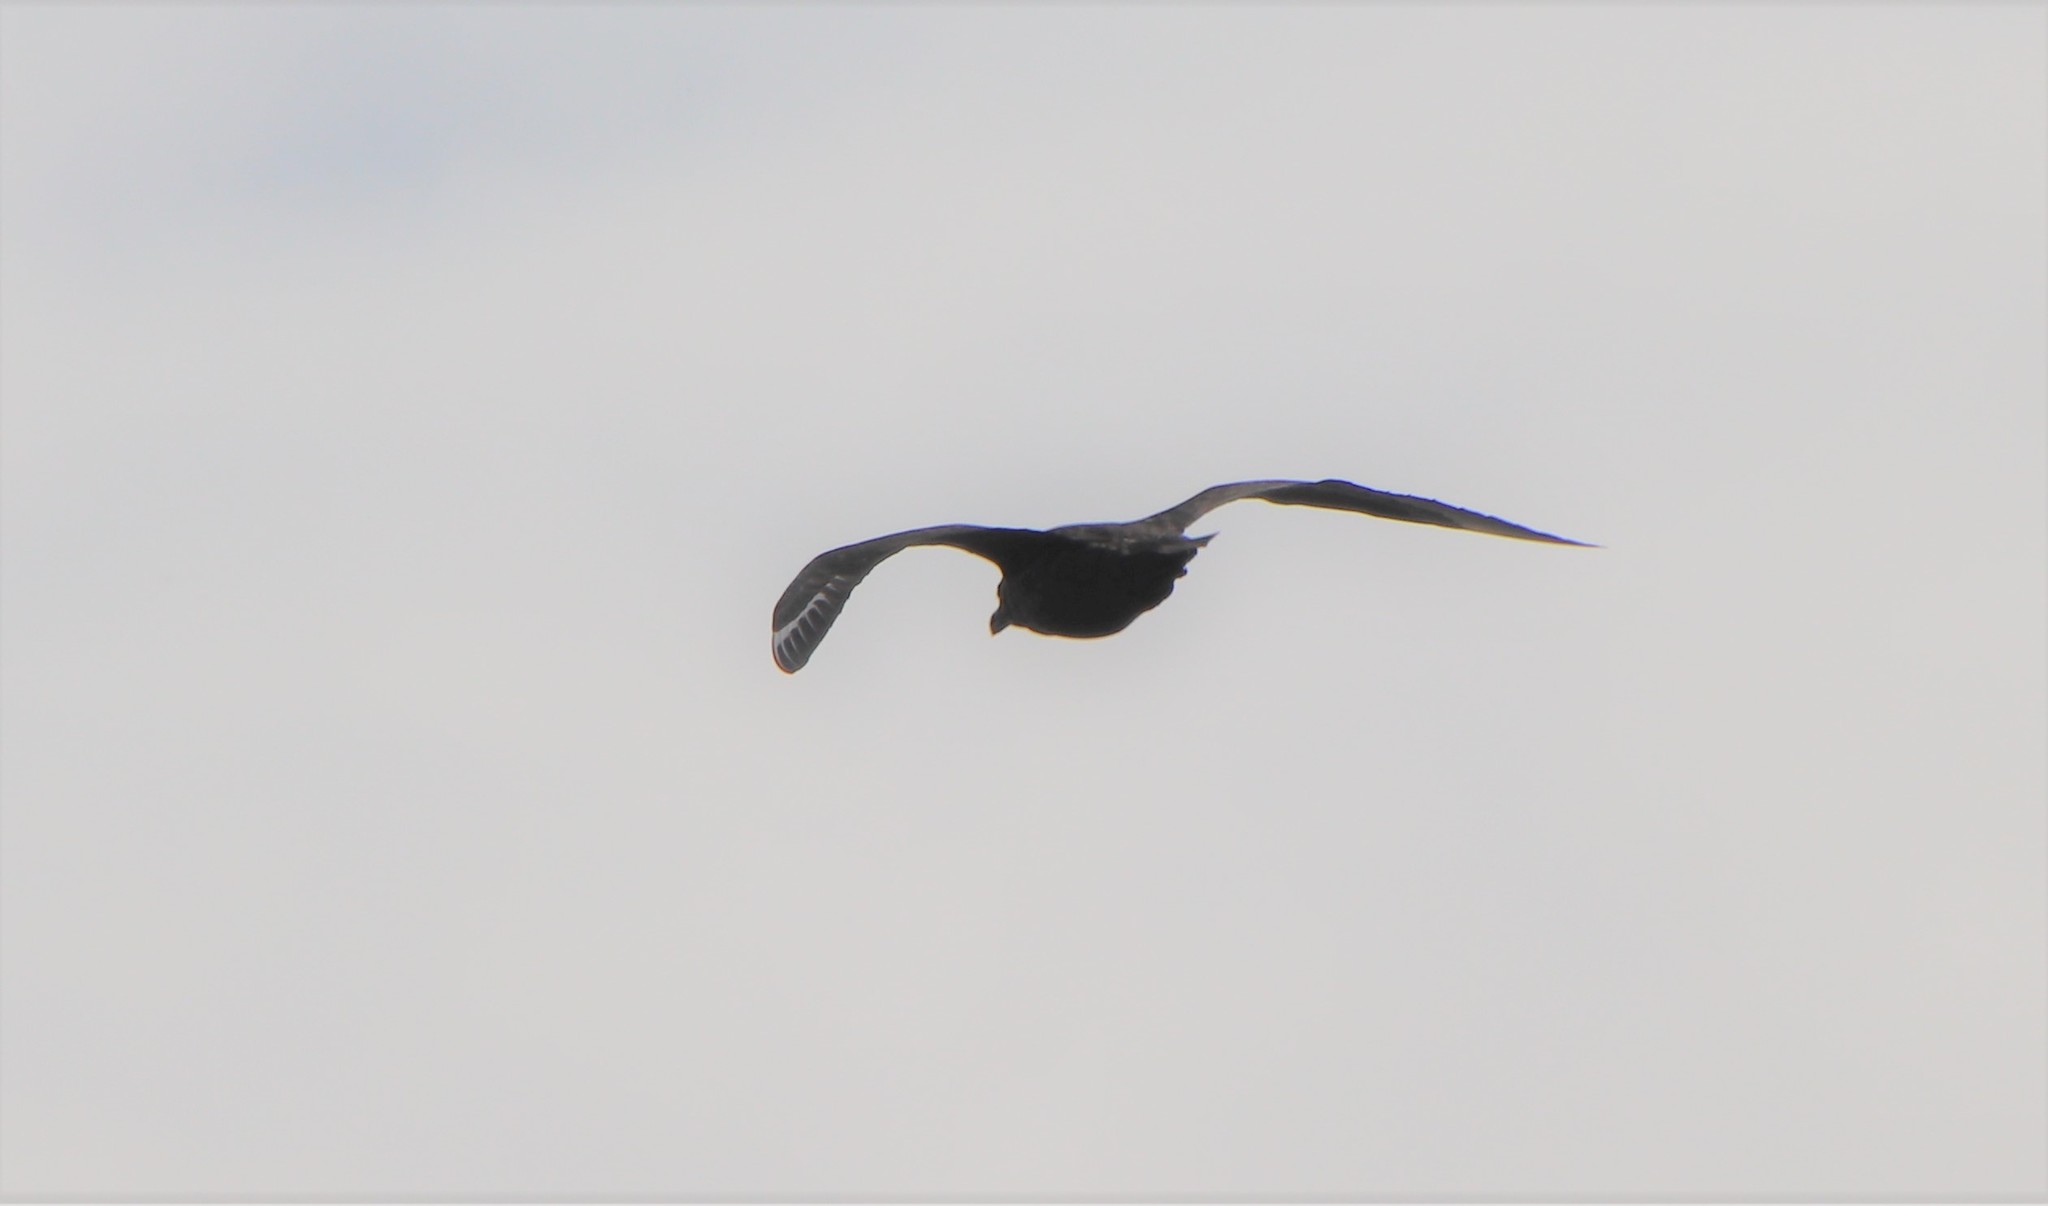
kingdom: Animalia
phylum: Chordata
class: Aves
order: Charadriiformes
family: Stercorariidae
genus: Stercorarius
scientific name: Stercorarius skua
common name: Great skua
